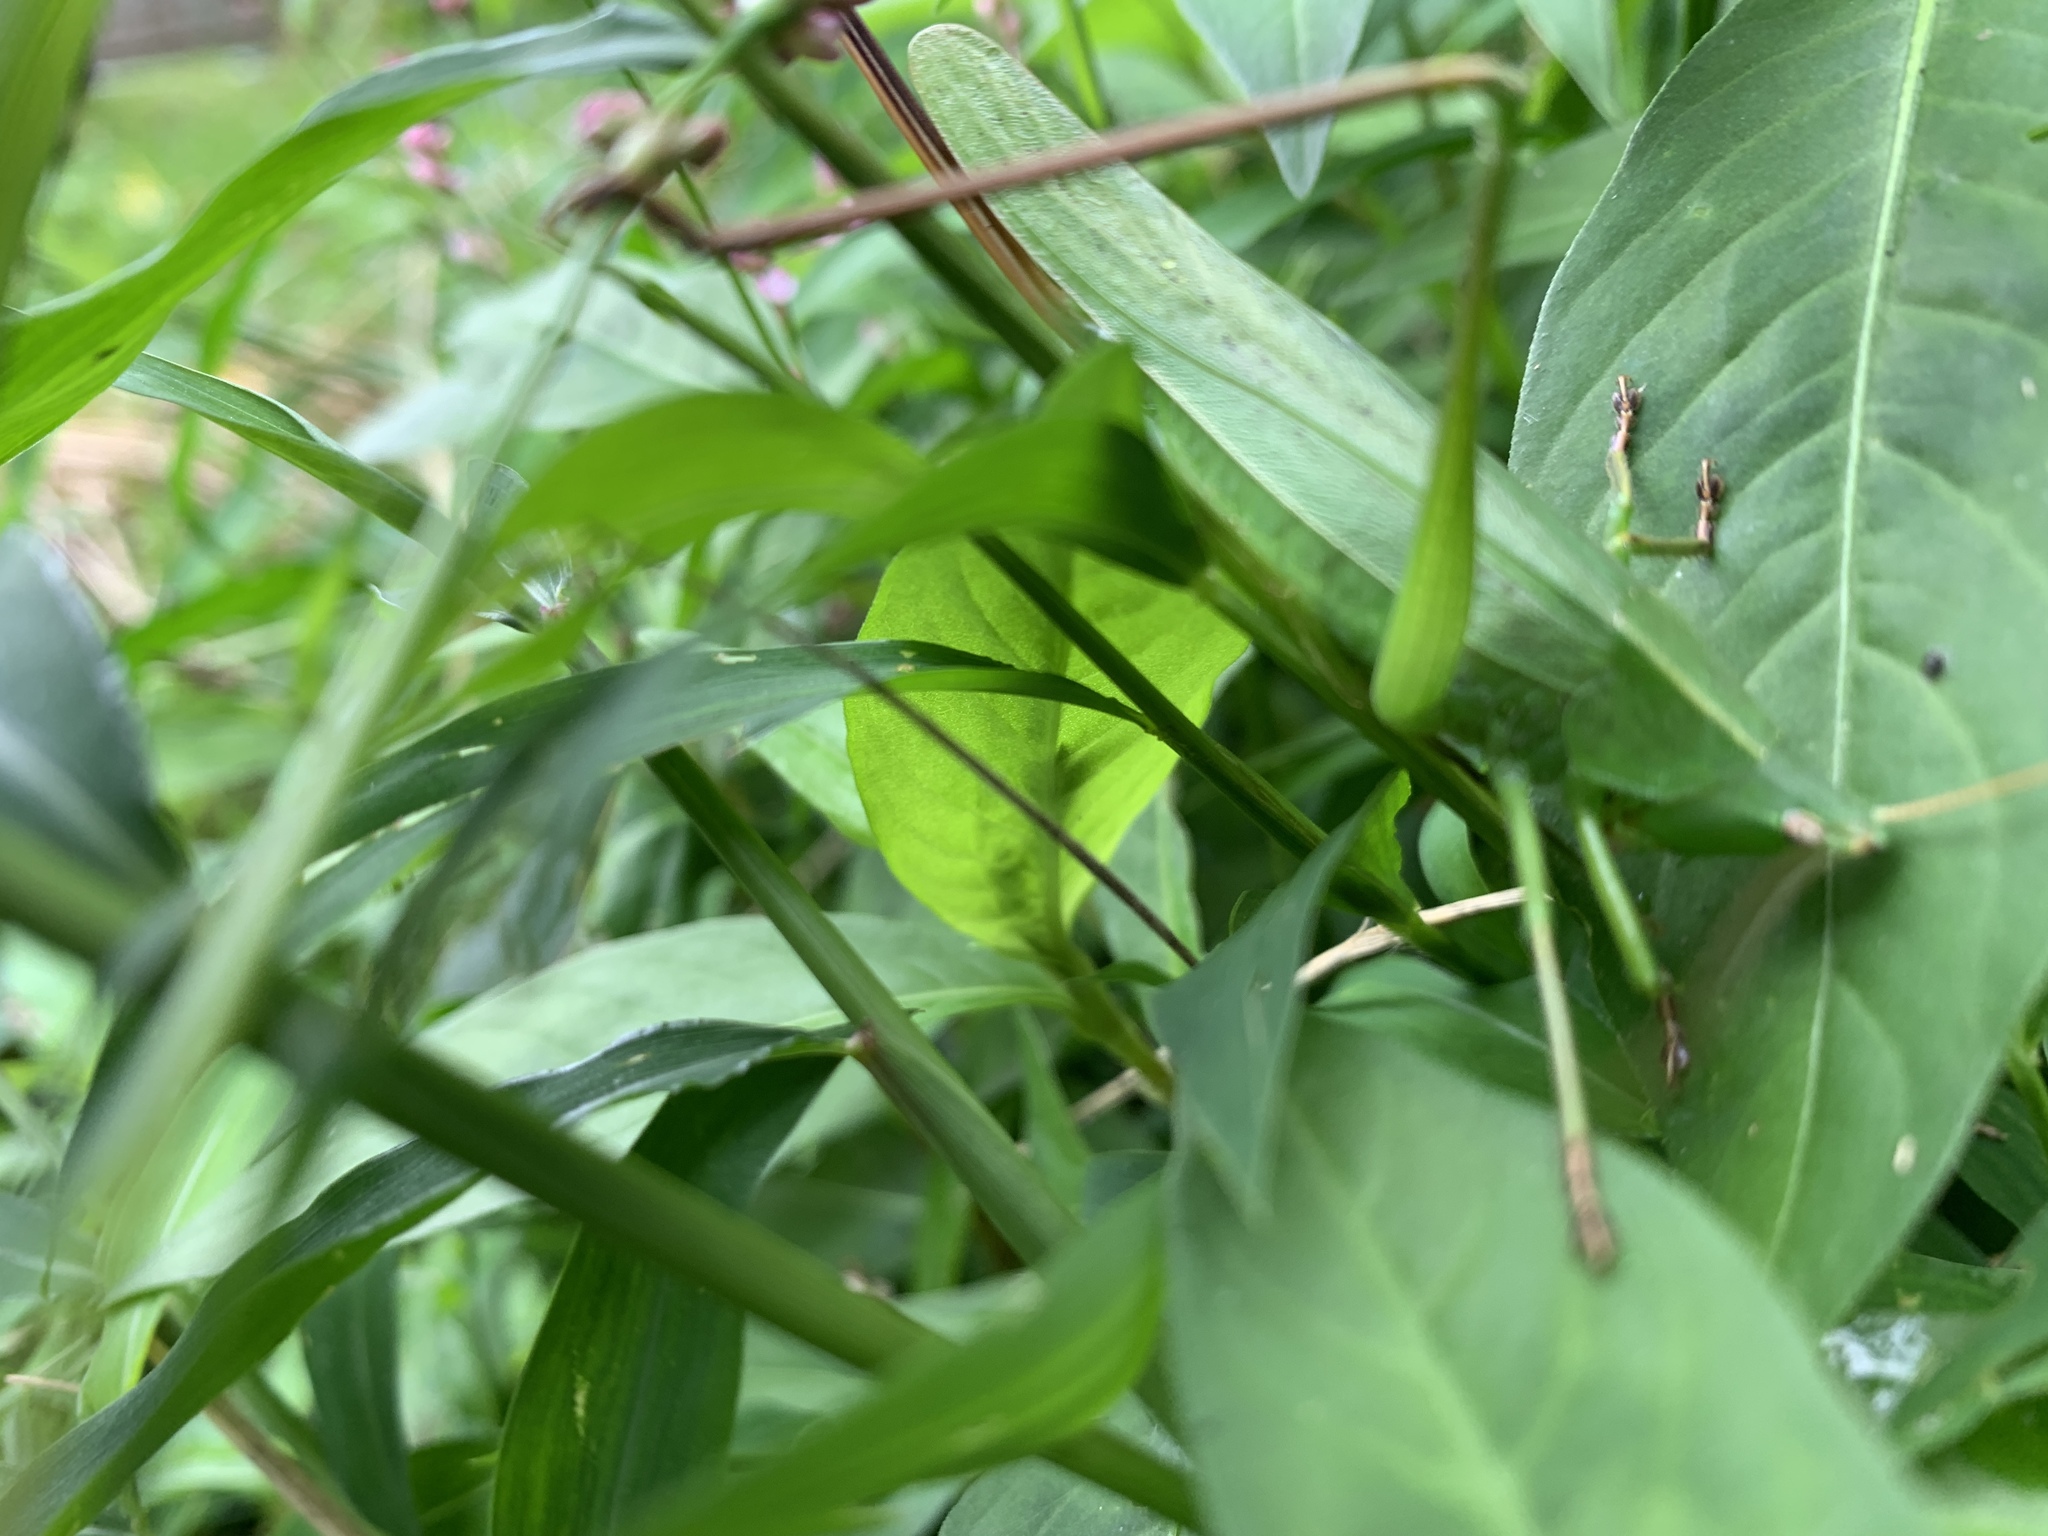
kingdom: Animalia
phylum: Arthropoda
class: Insecta
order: Orthoptera
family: Tettigoniidae
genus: Neoconocephalus
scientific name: Neoconocephalus retusus
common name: Round-tipped conehead
